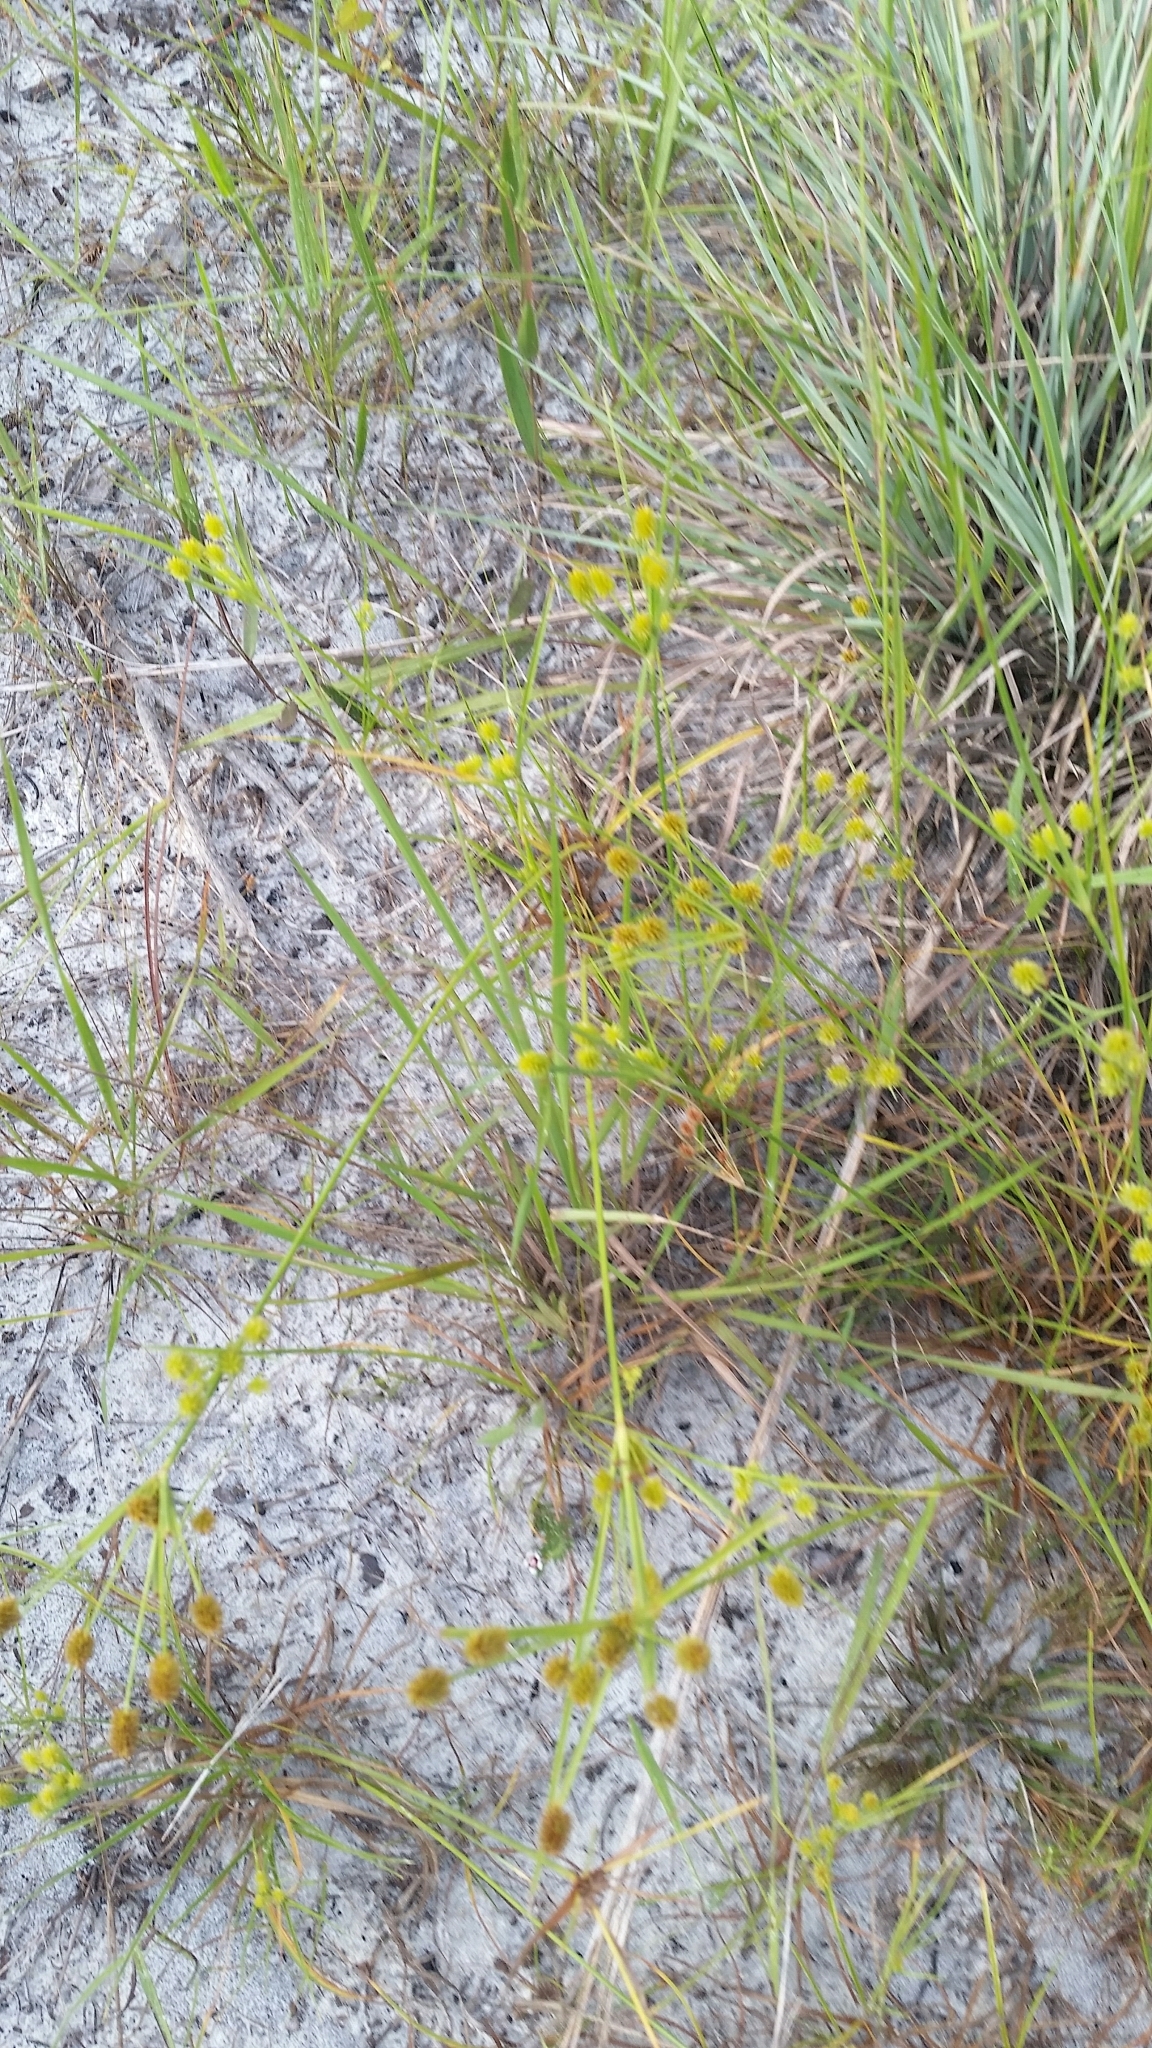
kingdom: Plantae
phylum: Tracheophyta
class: Liliopsida
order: Poales
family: Cyperaceae
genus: Cyperus
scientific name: Cyperus retrorsus
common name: Pinebarren flat sedge
